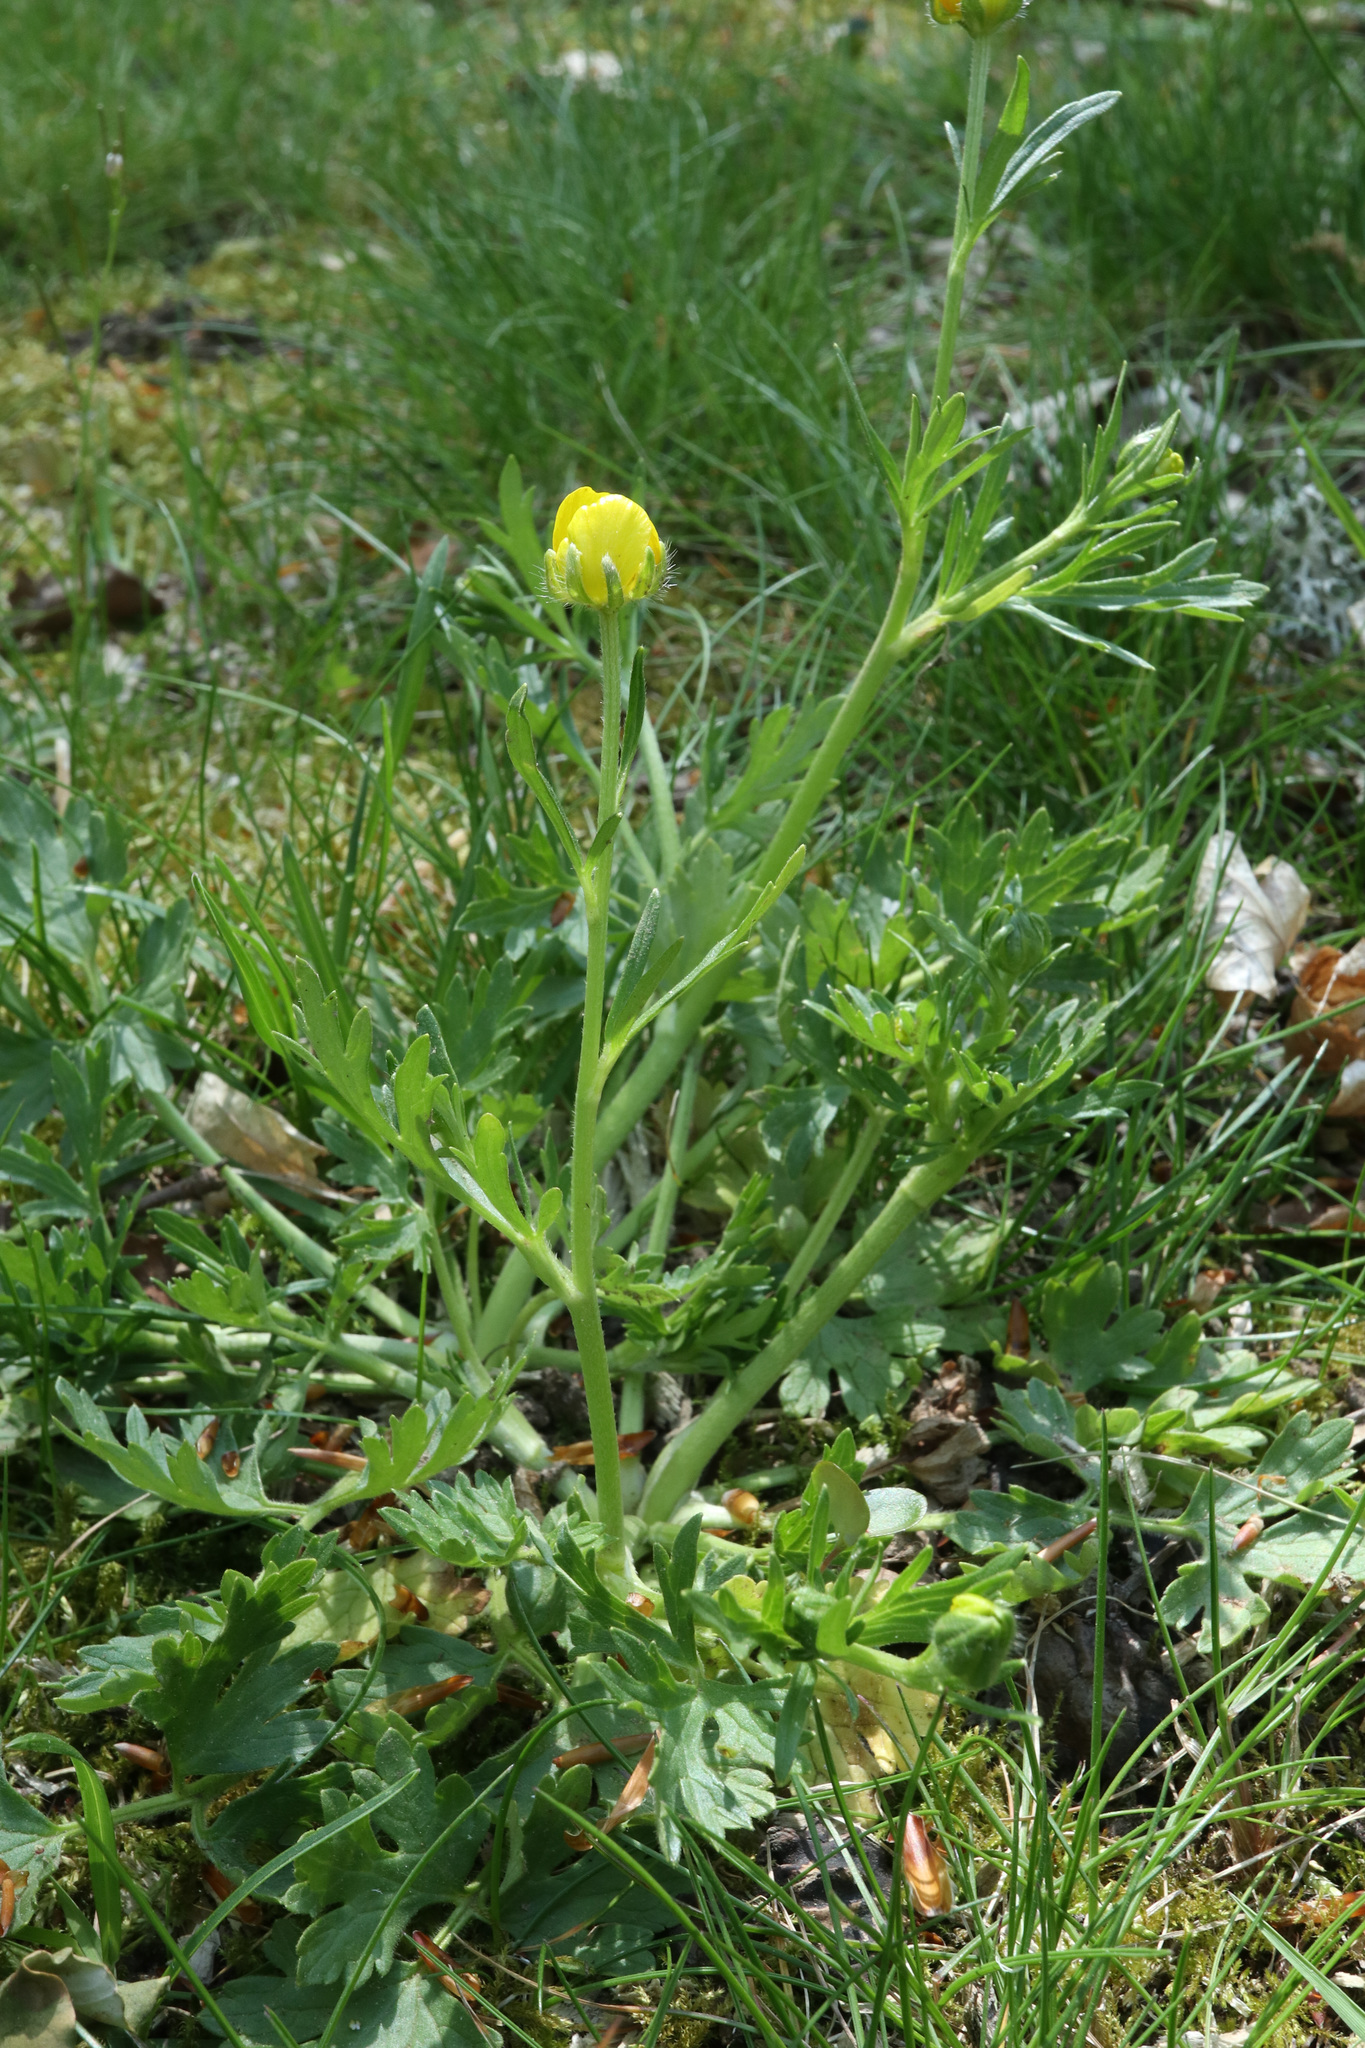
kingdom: Plantae
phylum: Tracheophyta
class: Magnoliopsida
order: Ranunculales
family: Ranunculaceae
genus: Ranunculus
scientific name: Ranunculus bulbosus
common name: Bulbous buttercup
